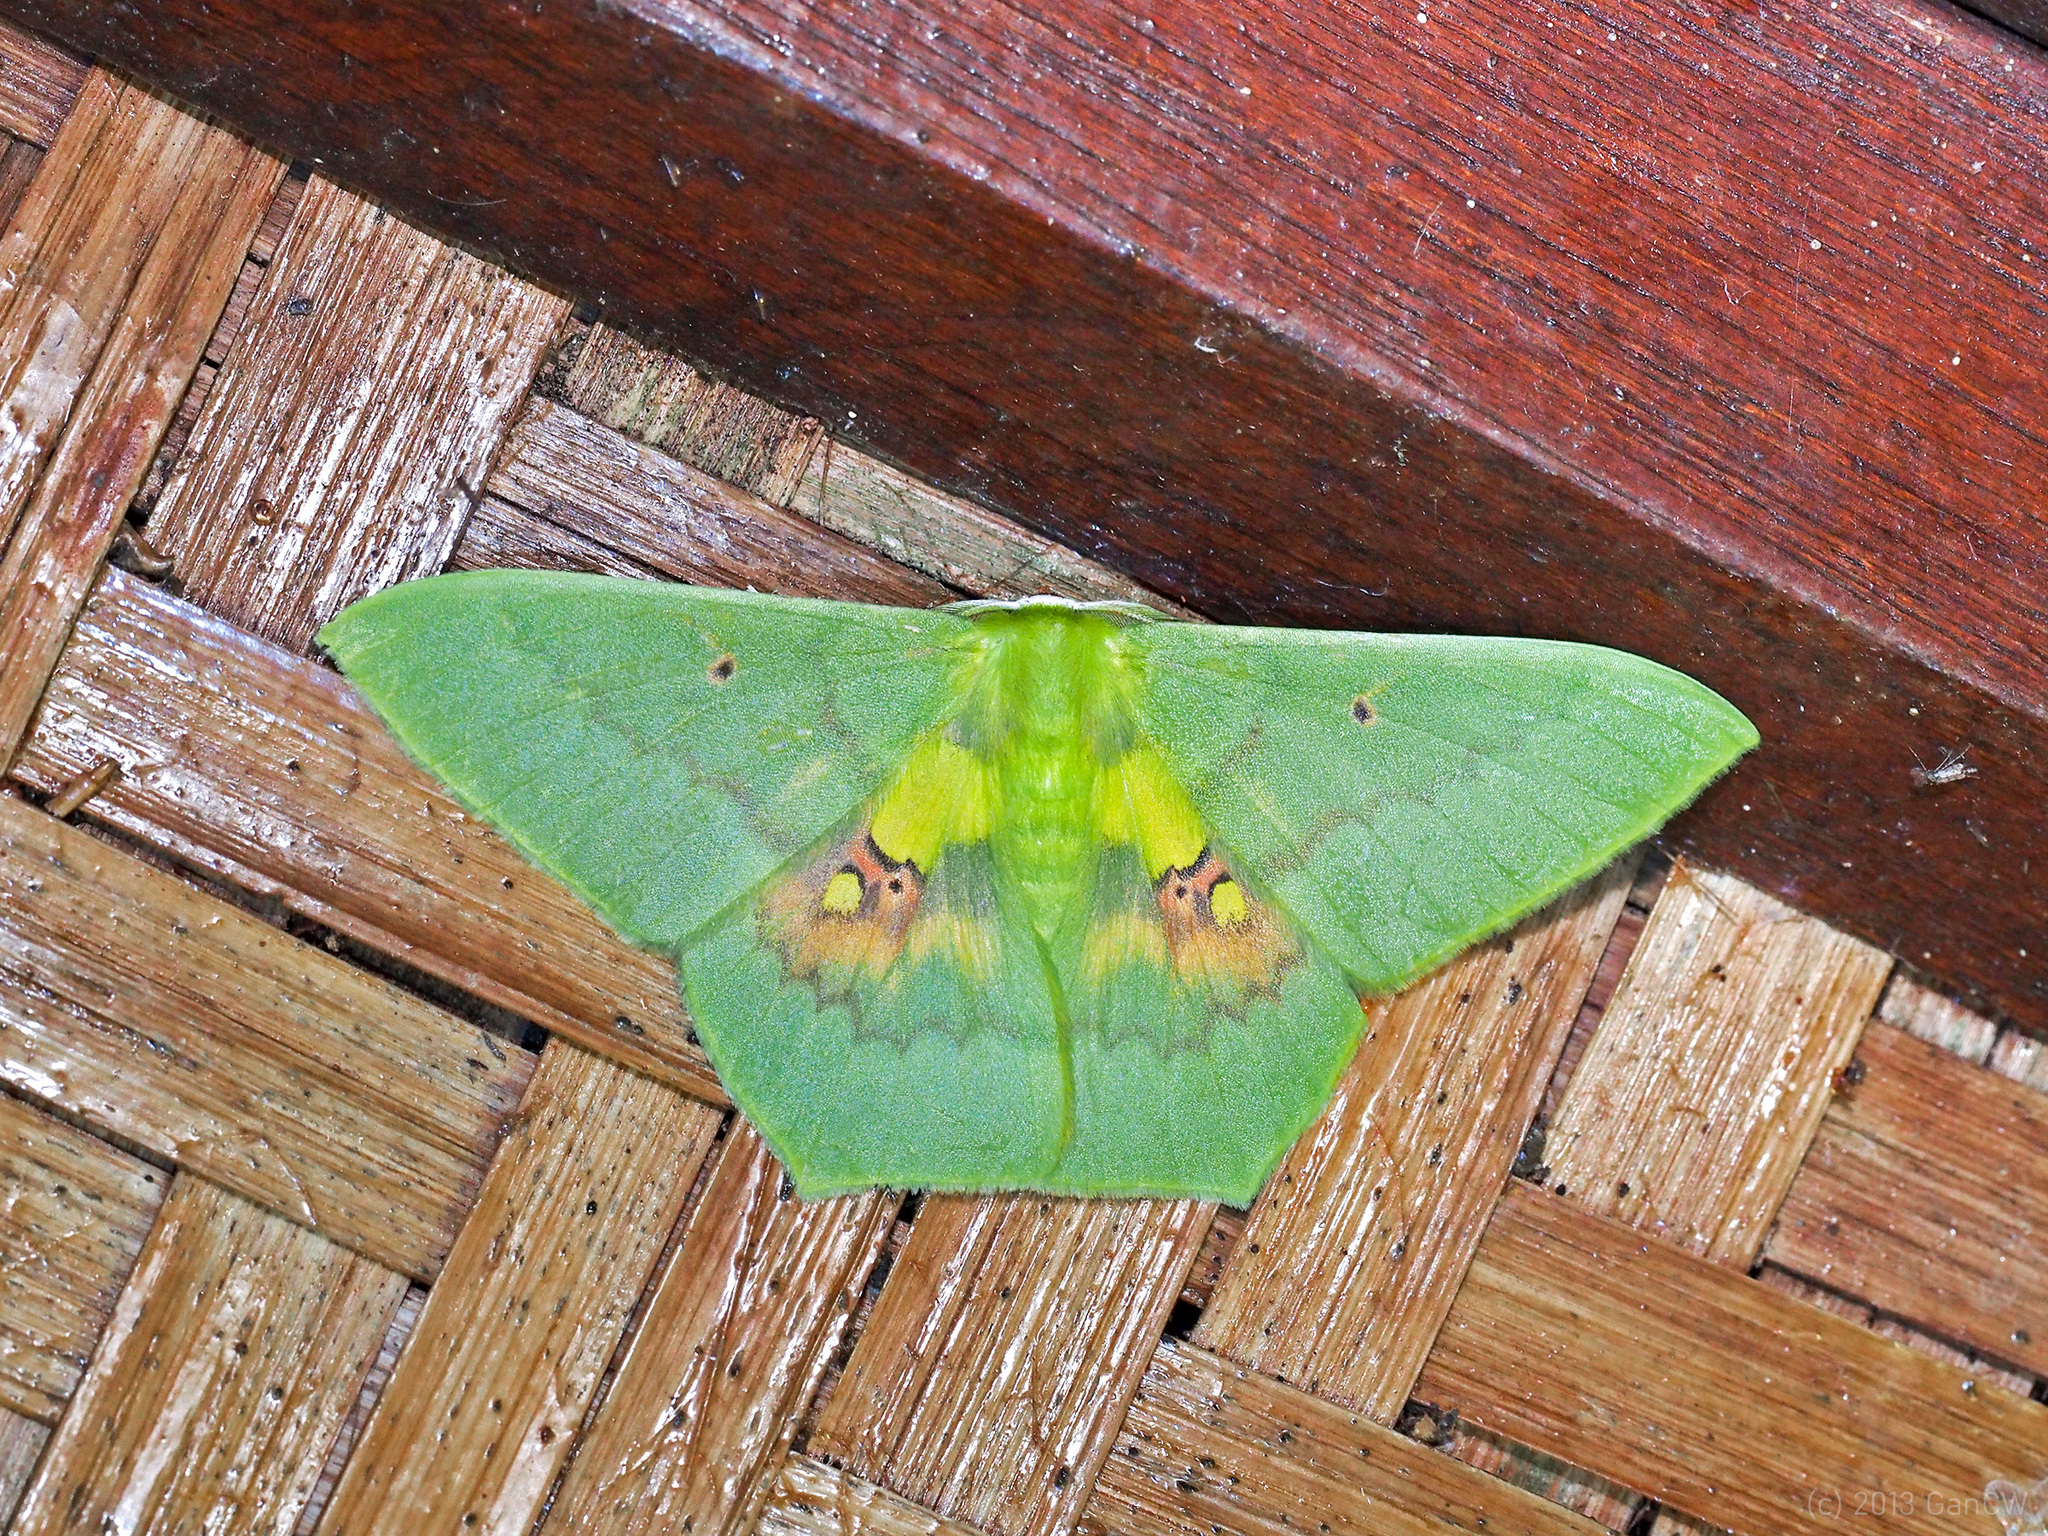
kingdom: Animalia
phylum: Arthropoda
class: Insecta
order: Lepidoptera
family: Geometridae
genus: Aporandria
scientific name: Aporandria specularia
